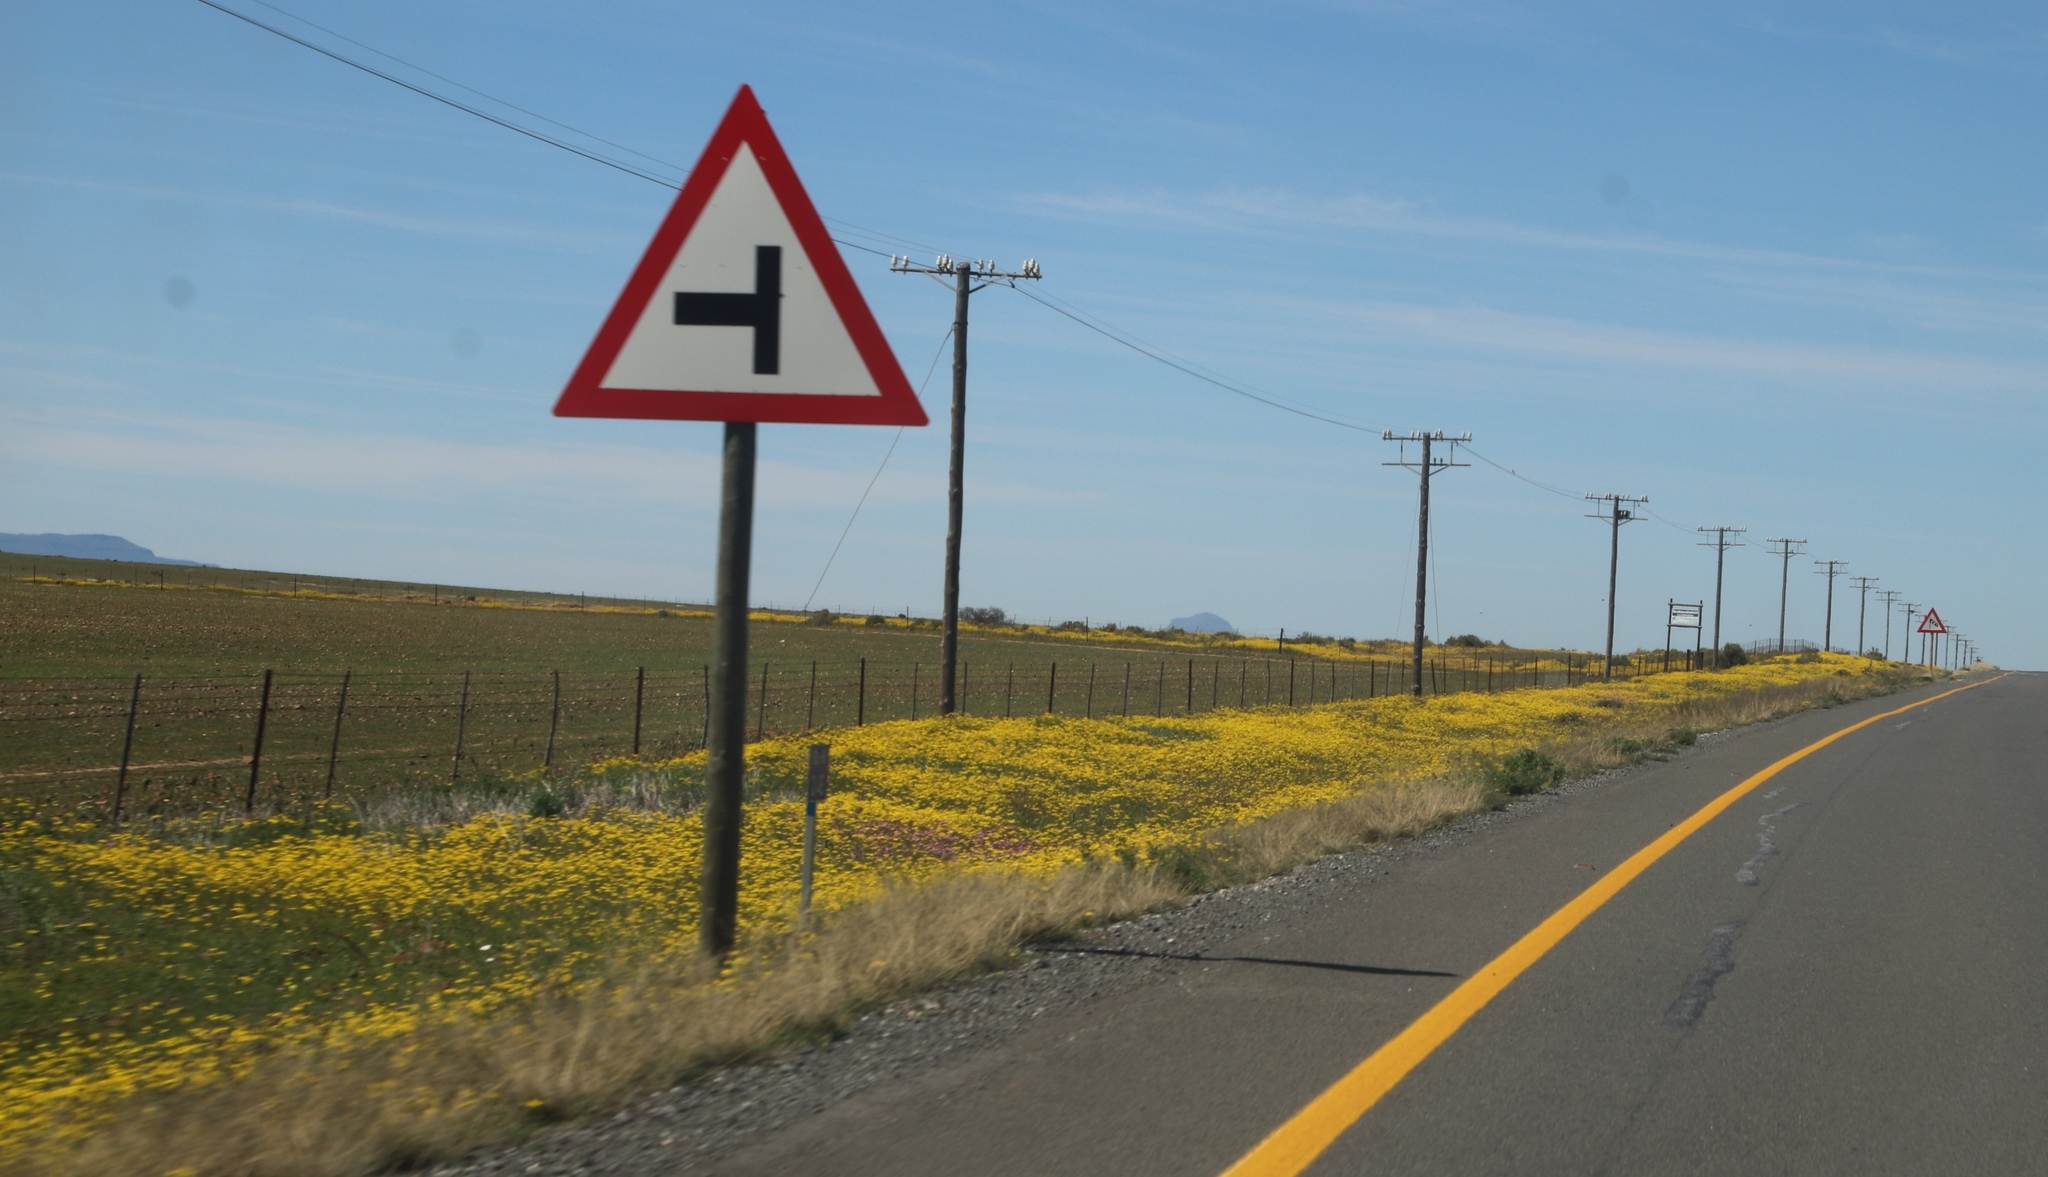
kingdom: Plantae
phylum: Tracheophyta
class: Magnoliopsida
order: Asterales
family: Asteraceae
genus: Senecio
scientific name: Senecio abruptus
